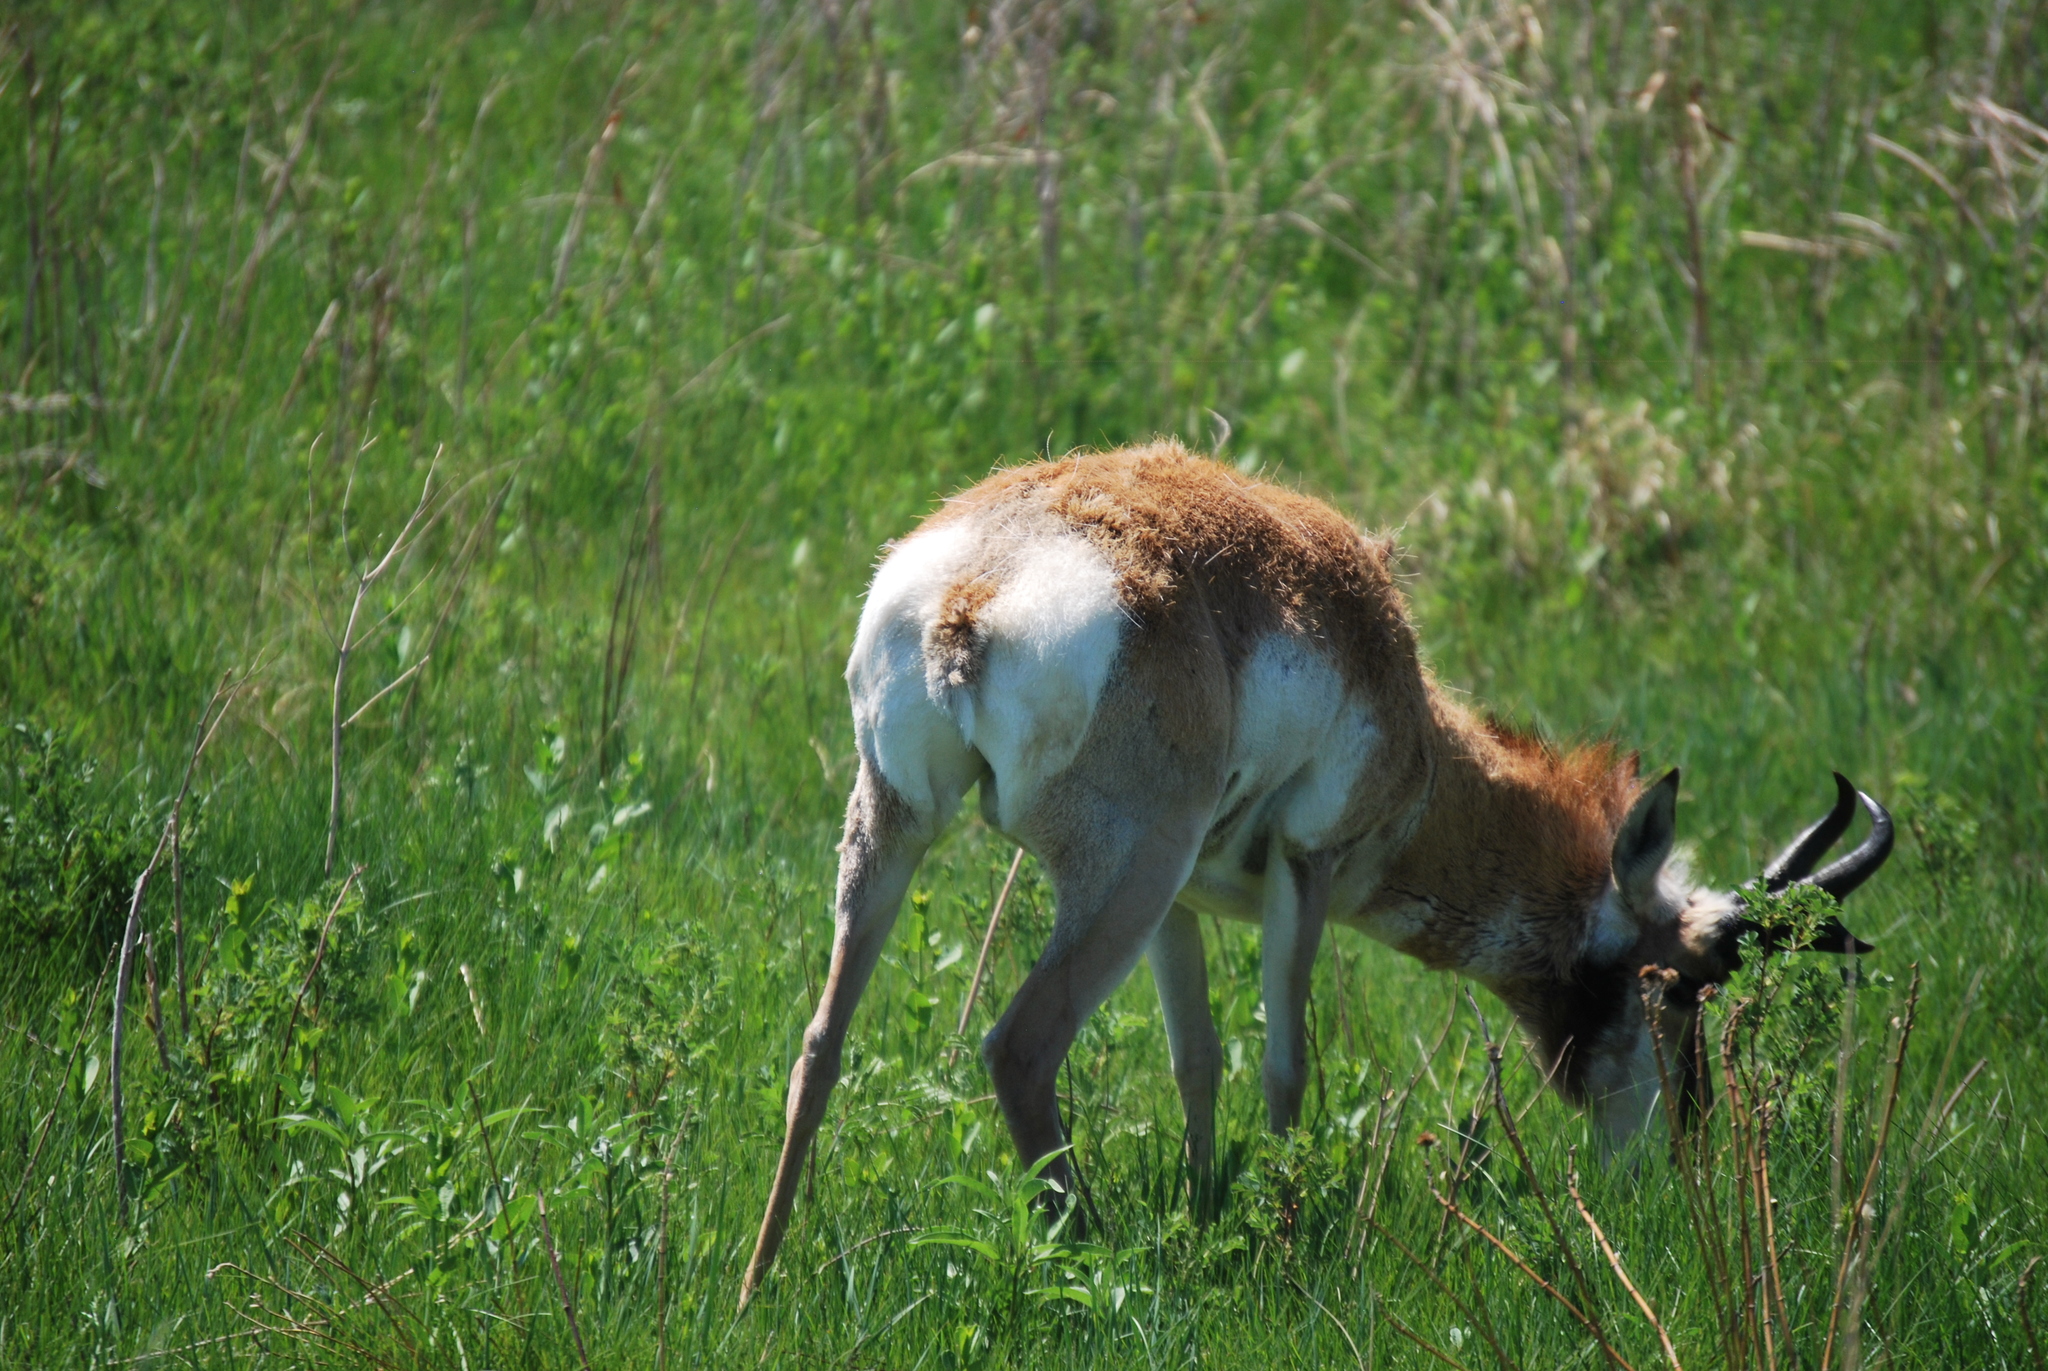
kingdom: Animalia
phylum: Chordata
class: Mammalia
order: Artiodactyla
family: Antilocapridae
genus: Antilocapra
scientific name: Antilocapra americana
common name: Pronghorn
